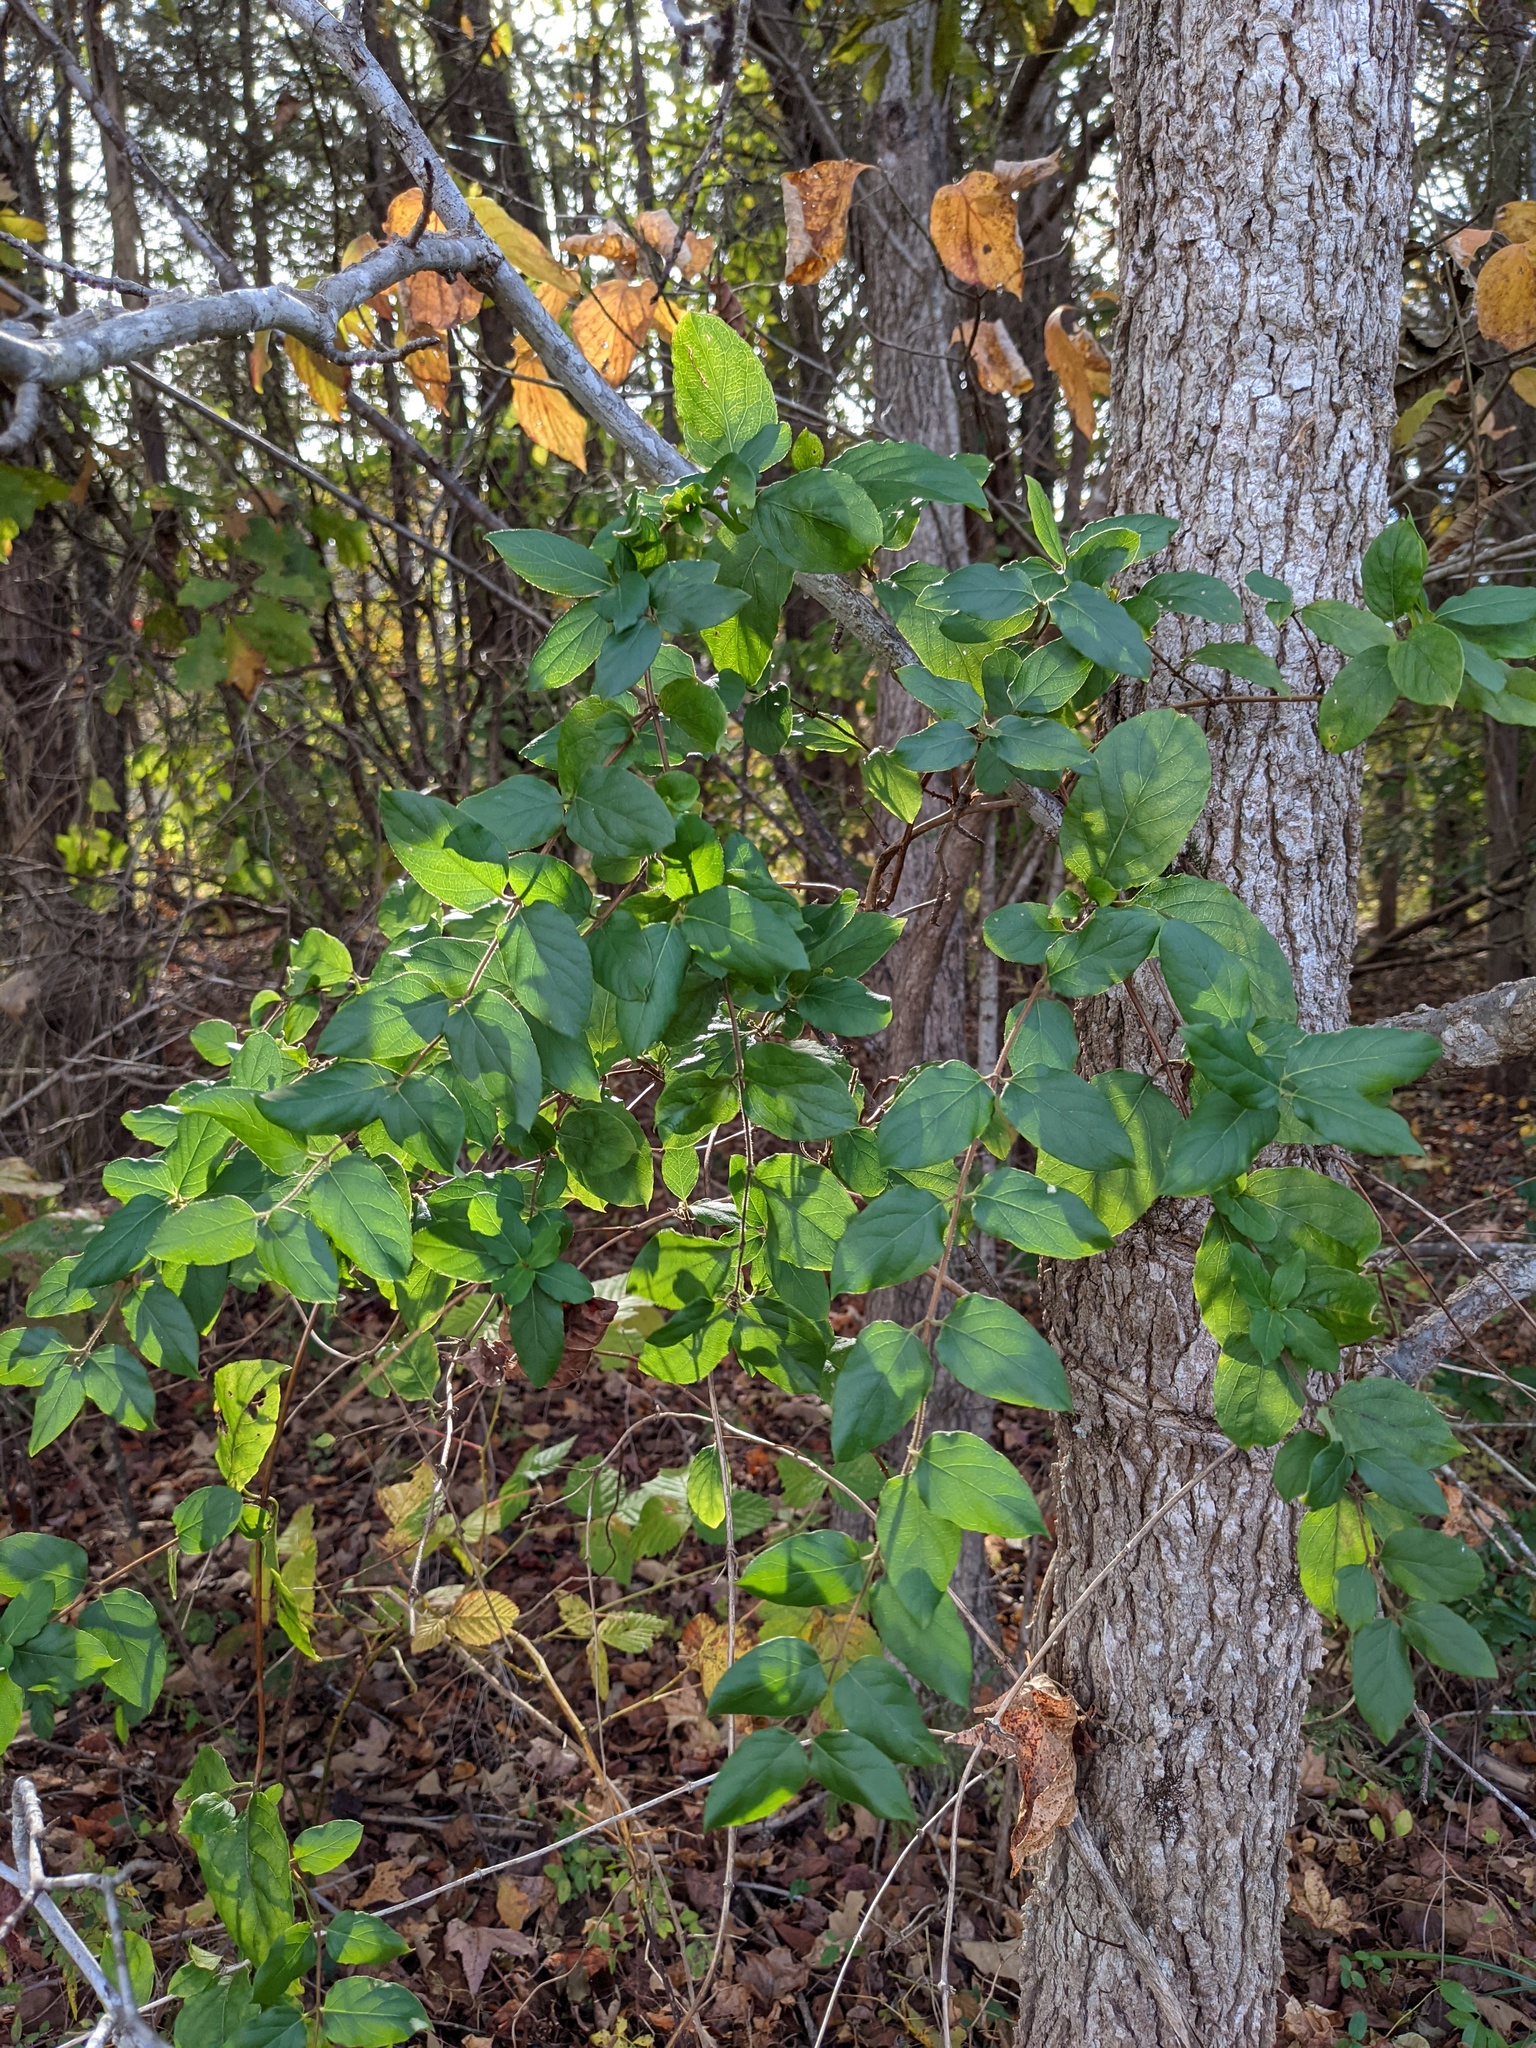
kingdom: Plantae
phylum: Tracheophyta
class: Magnoliopsida
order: Dipsacales
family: Caprifoliaceae
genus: Lonicera
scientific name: Lonicera japonica
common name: Japanese honeysuckle
